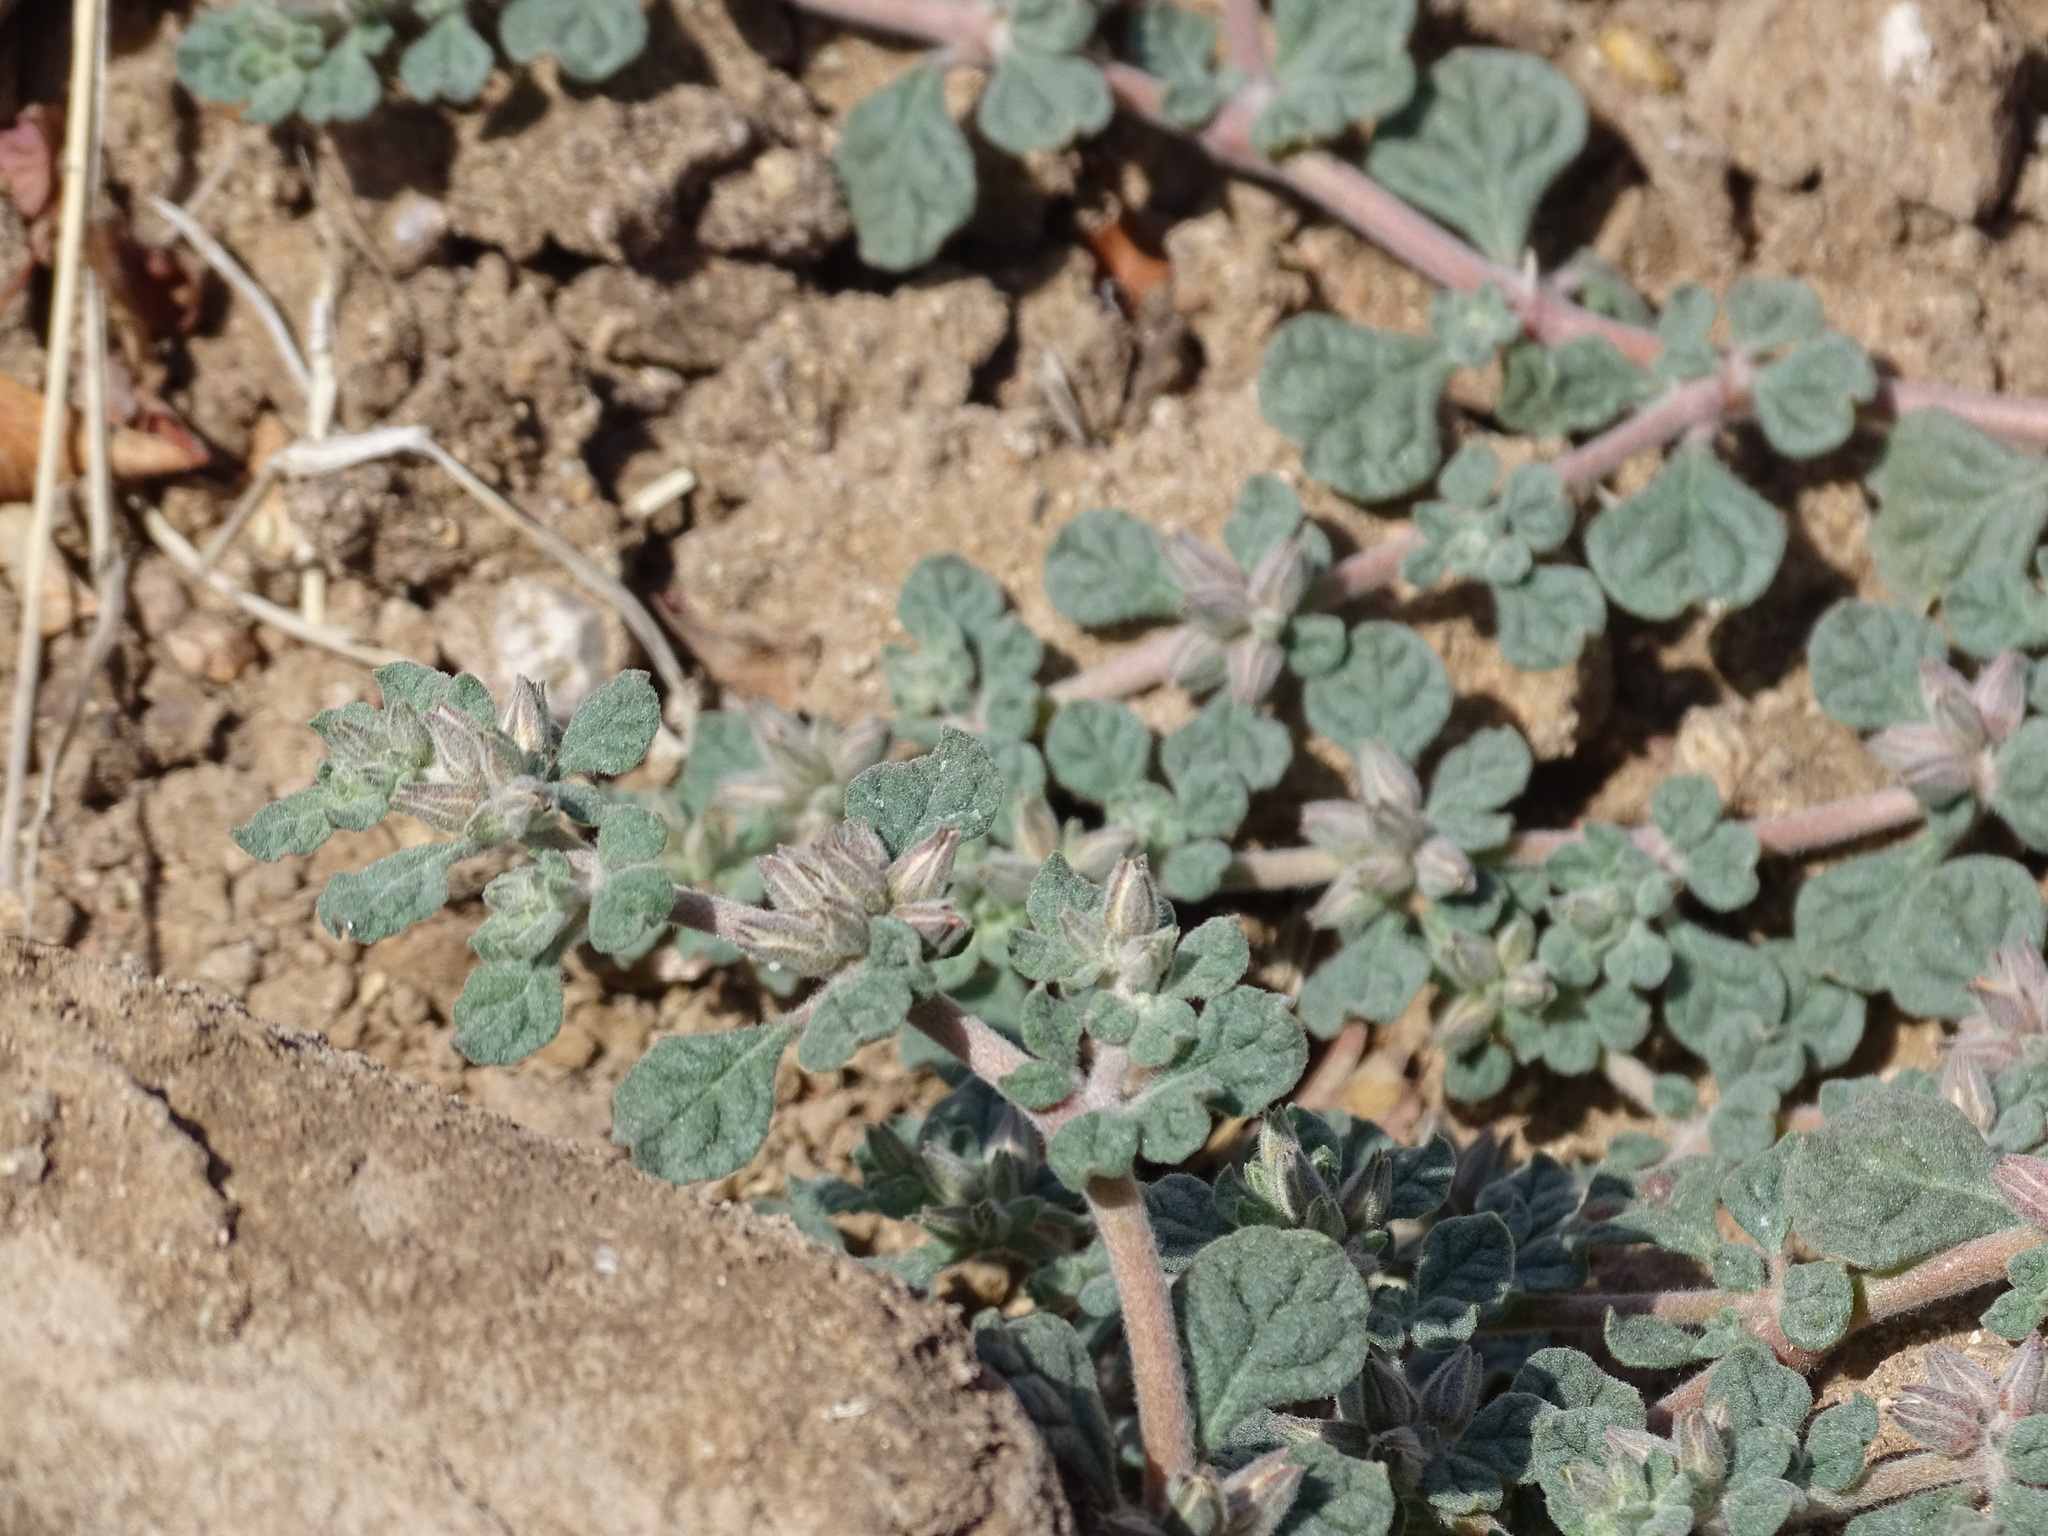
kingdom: Plantae
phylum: Tracheophyta
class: Magnoliopsida
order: Caryophyllales
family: Molluginaceae
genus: Glinus
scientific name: Glinus radiatus
